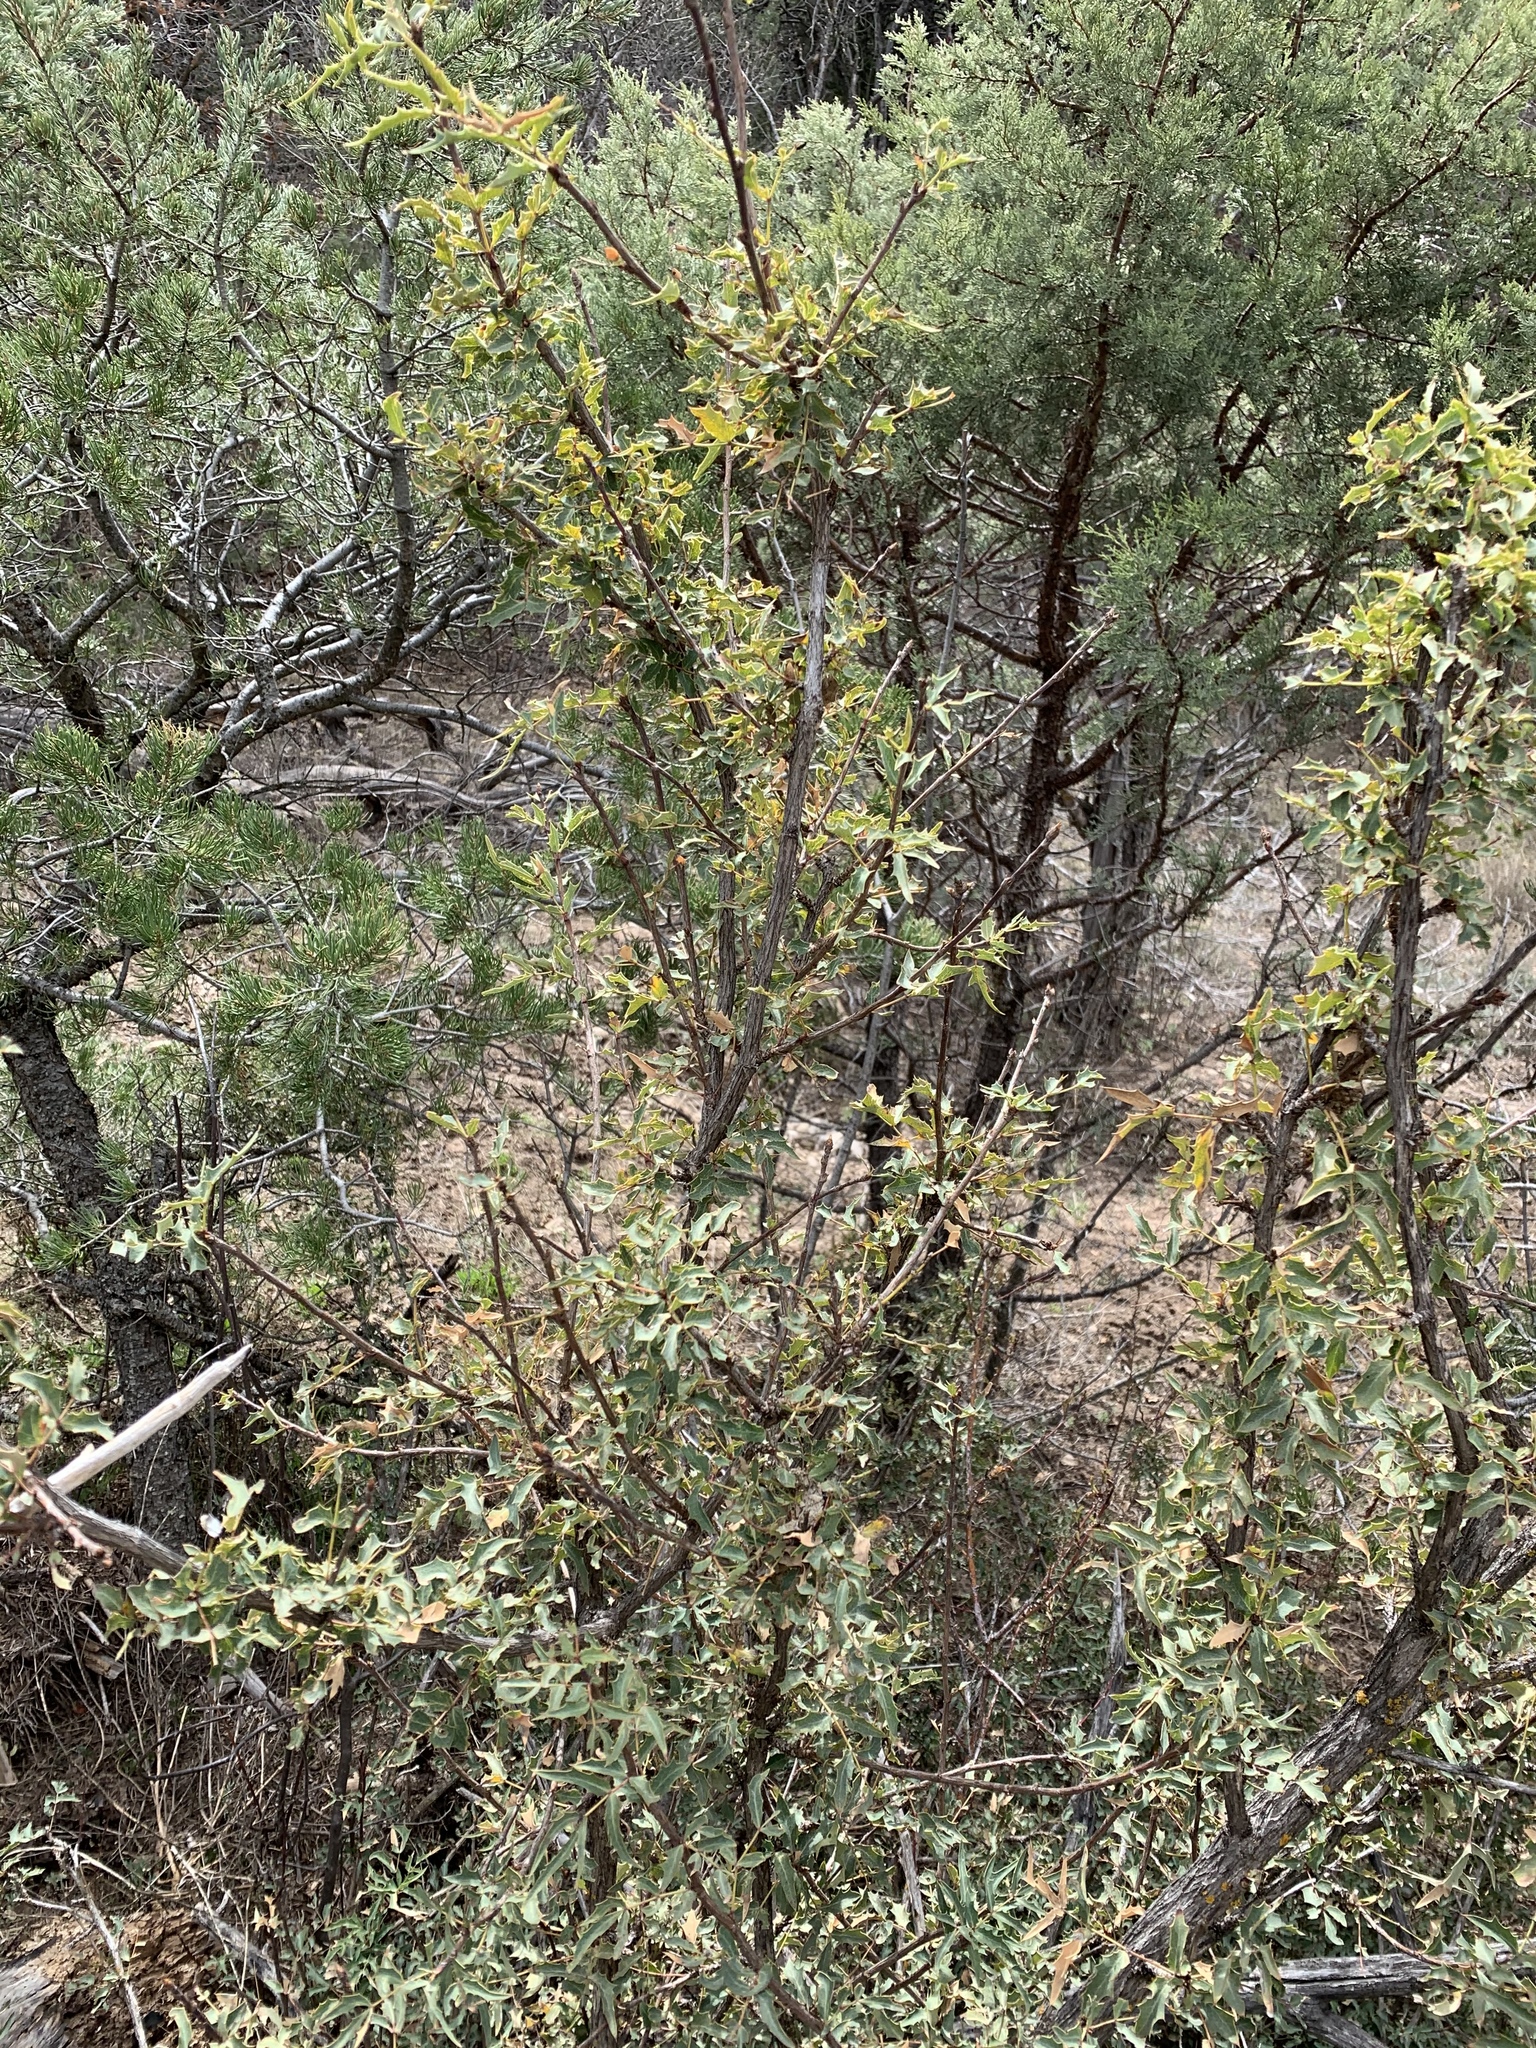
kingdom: Plantae
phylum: Tracheophyta
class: Magnoliopsida
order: Ranunculales
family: Berberidaceae
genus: Alloberberis
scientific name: Alloberberis haematocarpa
